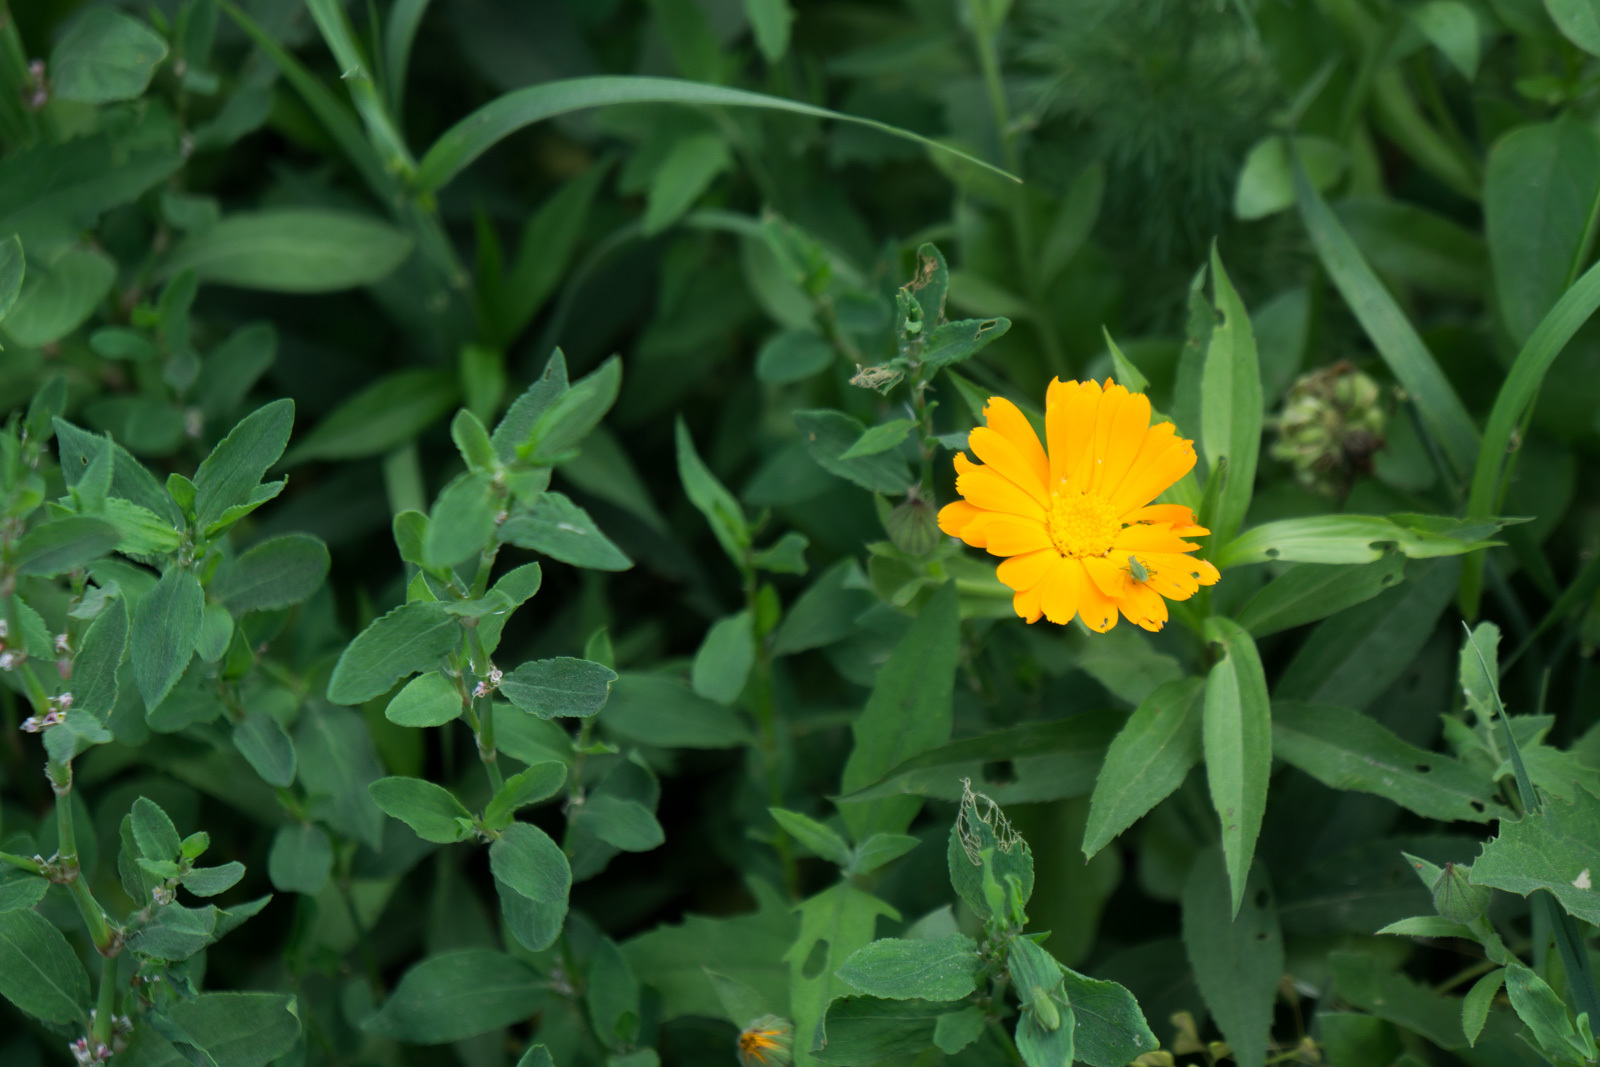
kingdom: Plantae
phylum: Tracheophyta
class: Magnoliopsida
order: Asterales
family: Asteraceae
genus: Calendula
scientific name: Calendula officinalis
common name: Pot marigold
